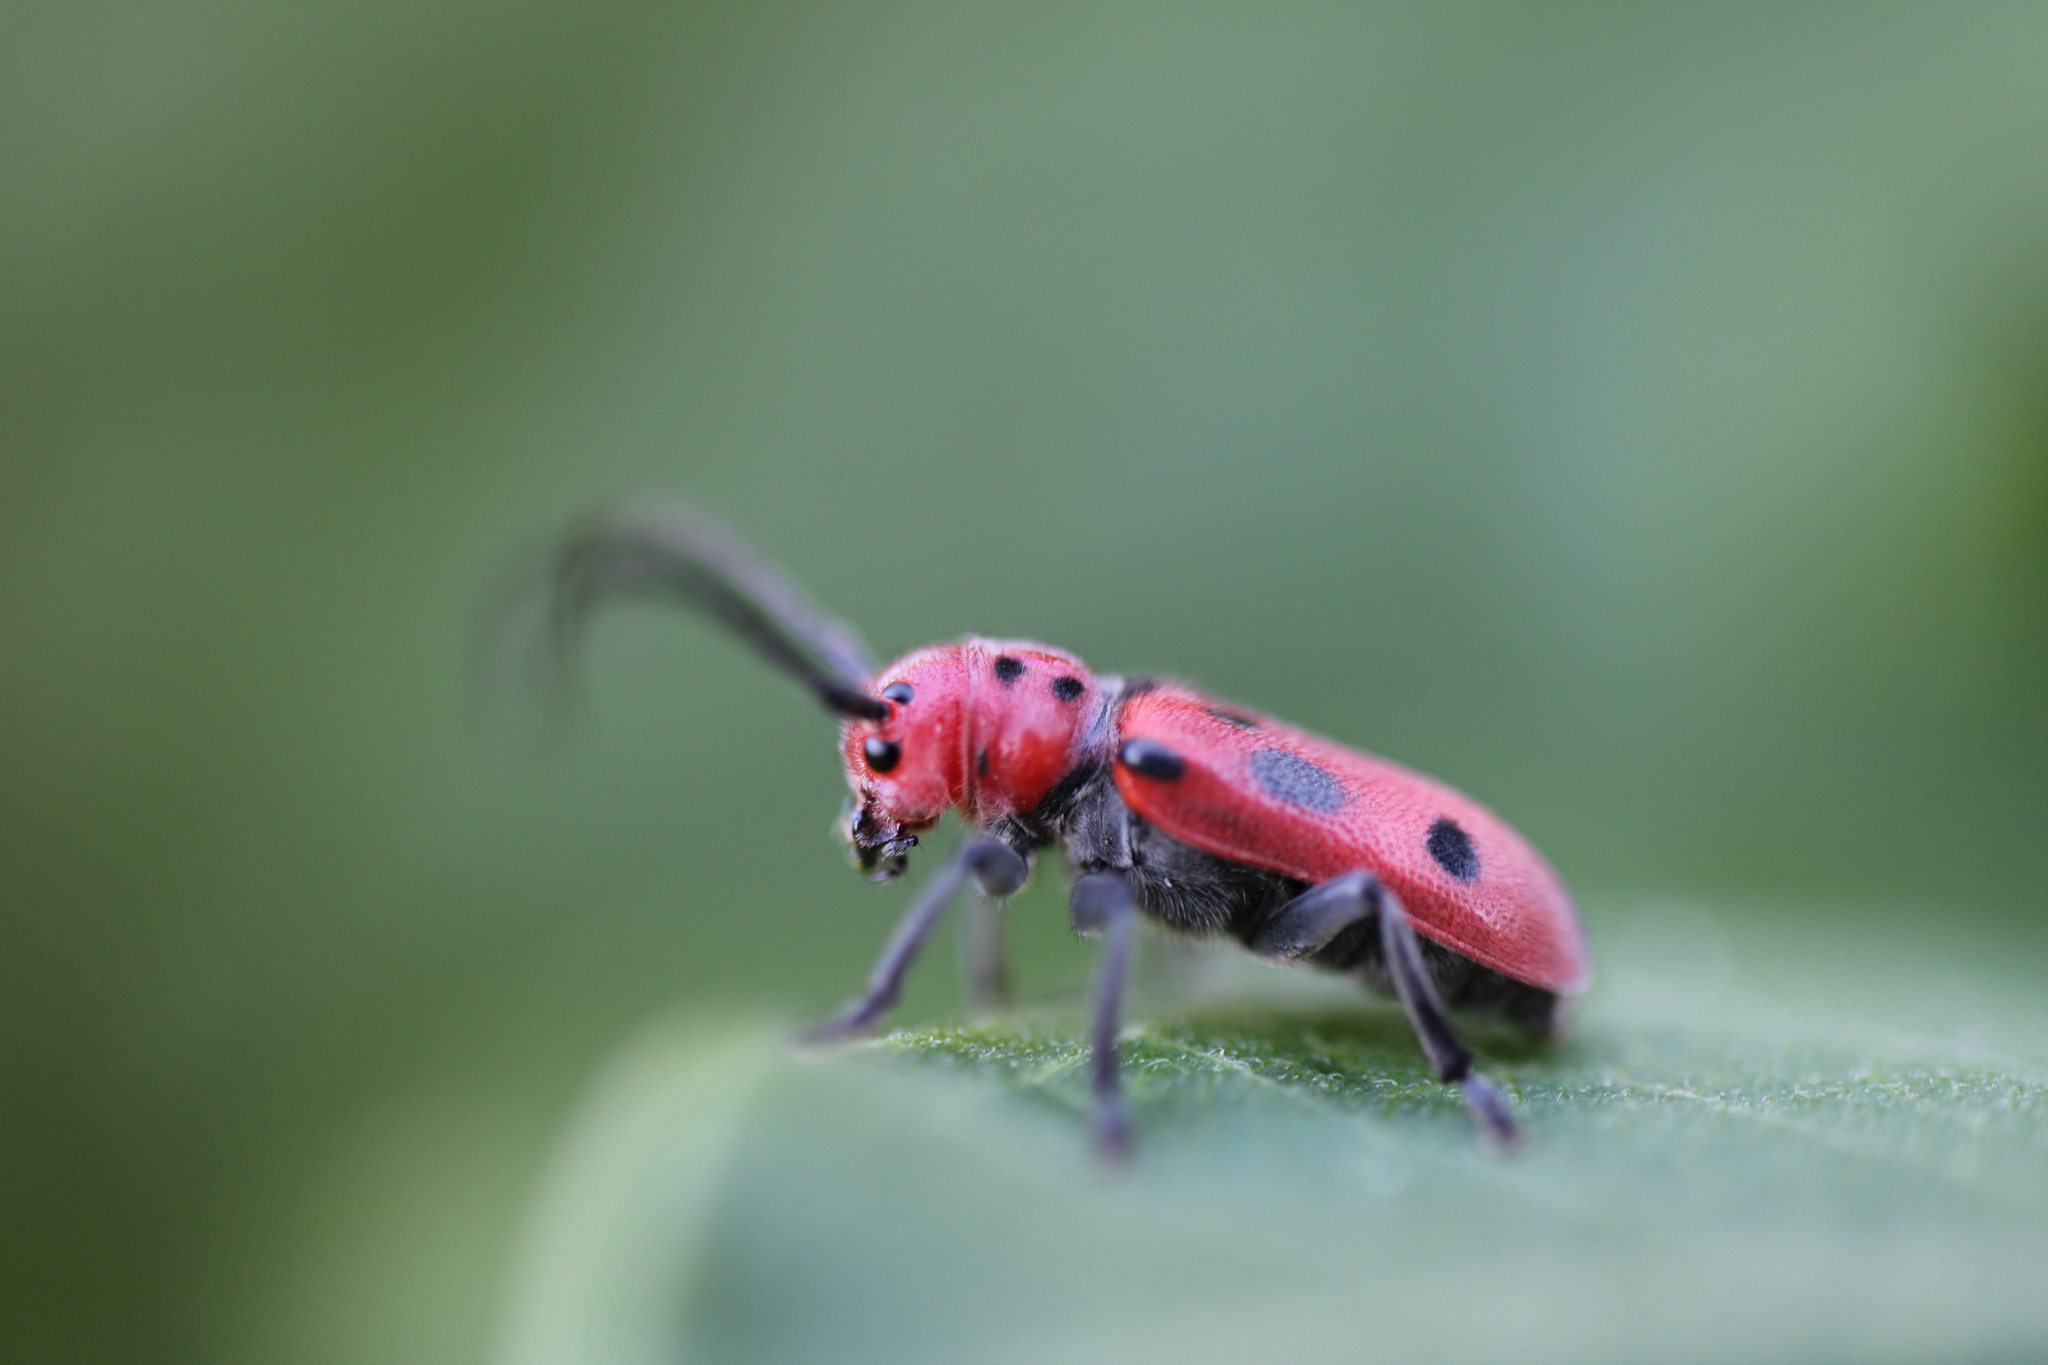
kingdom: Animalia
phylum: Arthropoda
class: Insecta
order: Coleoptera
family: Cerambycidae
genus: Tetraopes
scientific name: Tetraopes tetrophthalmus
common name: Red milkweed beetle
